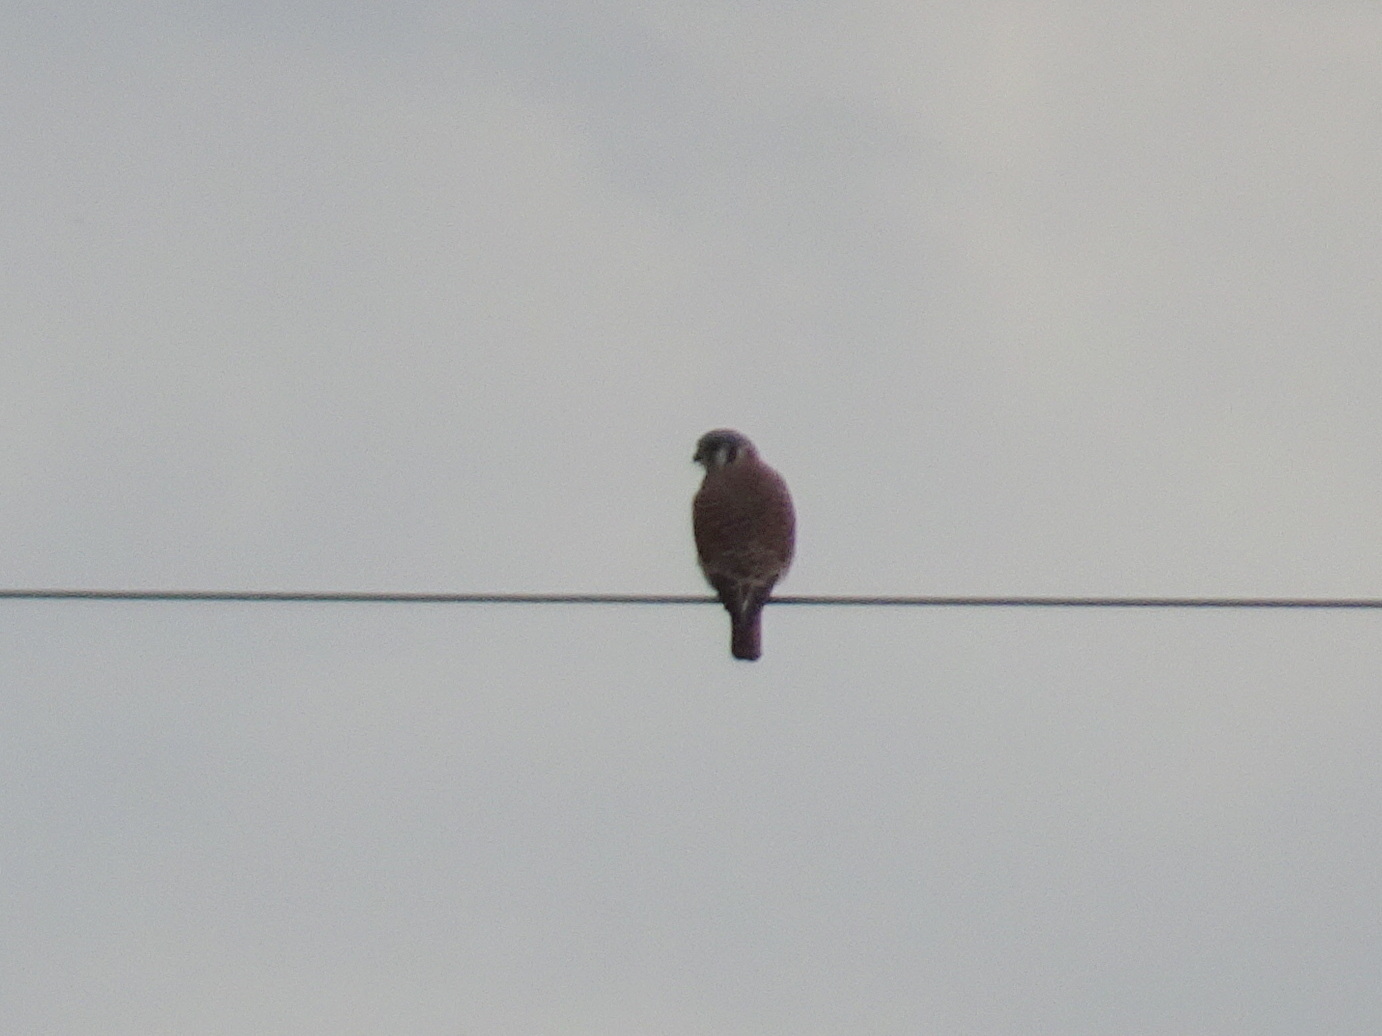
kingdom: Animalia
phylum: Chordata
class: Aves
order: Falconiformes
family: Falconidae
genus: Falco
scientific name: Falco sparverius
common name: American kestrel
